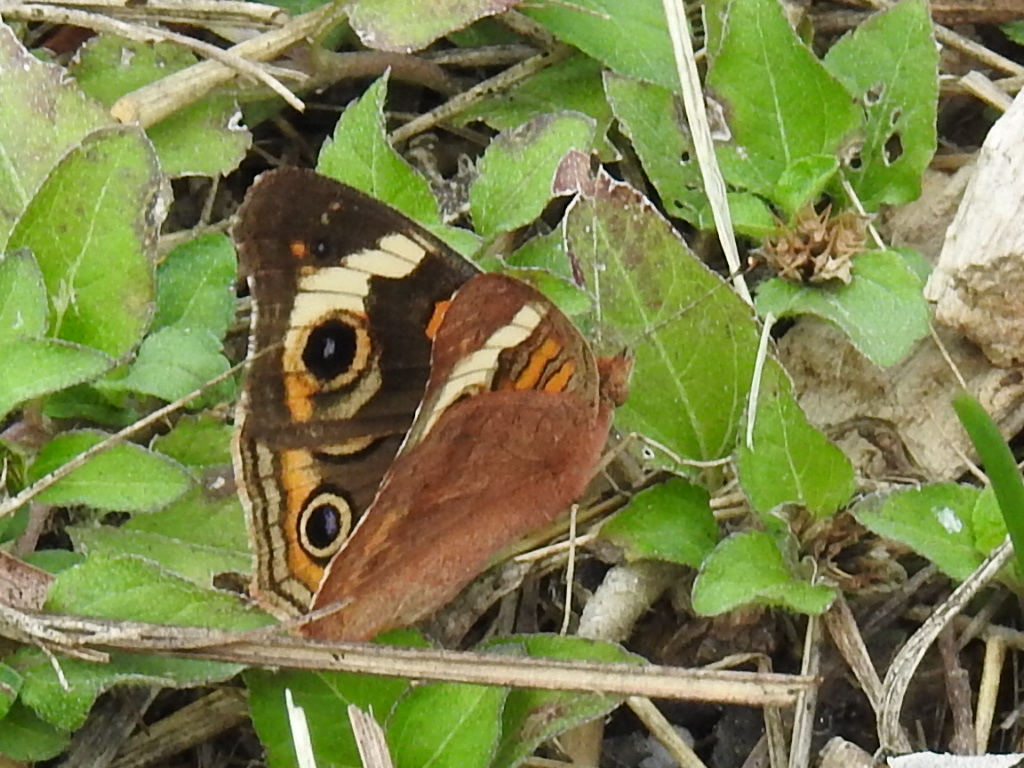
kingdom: Animalia
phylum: Arthropoda
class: Insecta
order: Lepidoptera
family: Nymphalidae
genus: Junonia
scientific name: Junonia coenia
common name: Common buckeye
